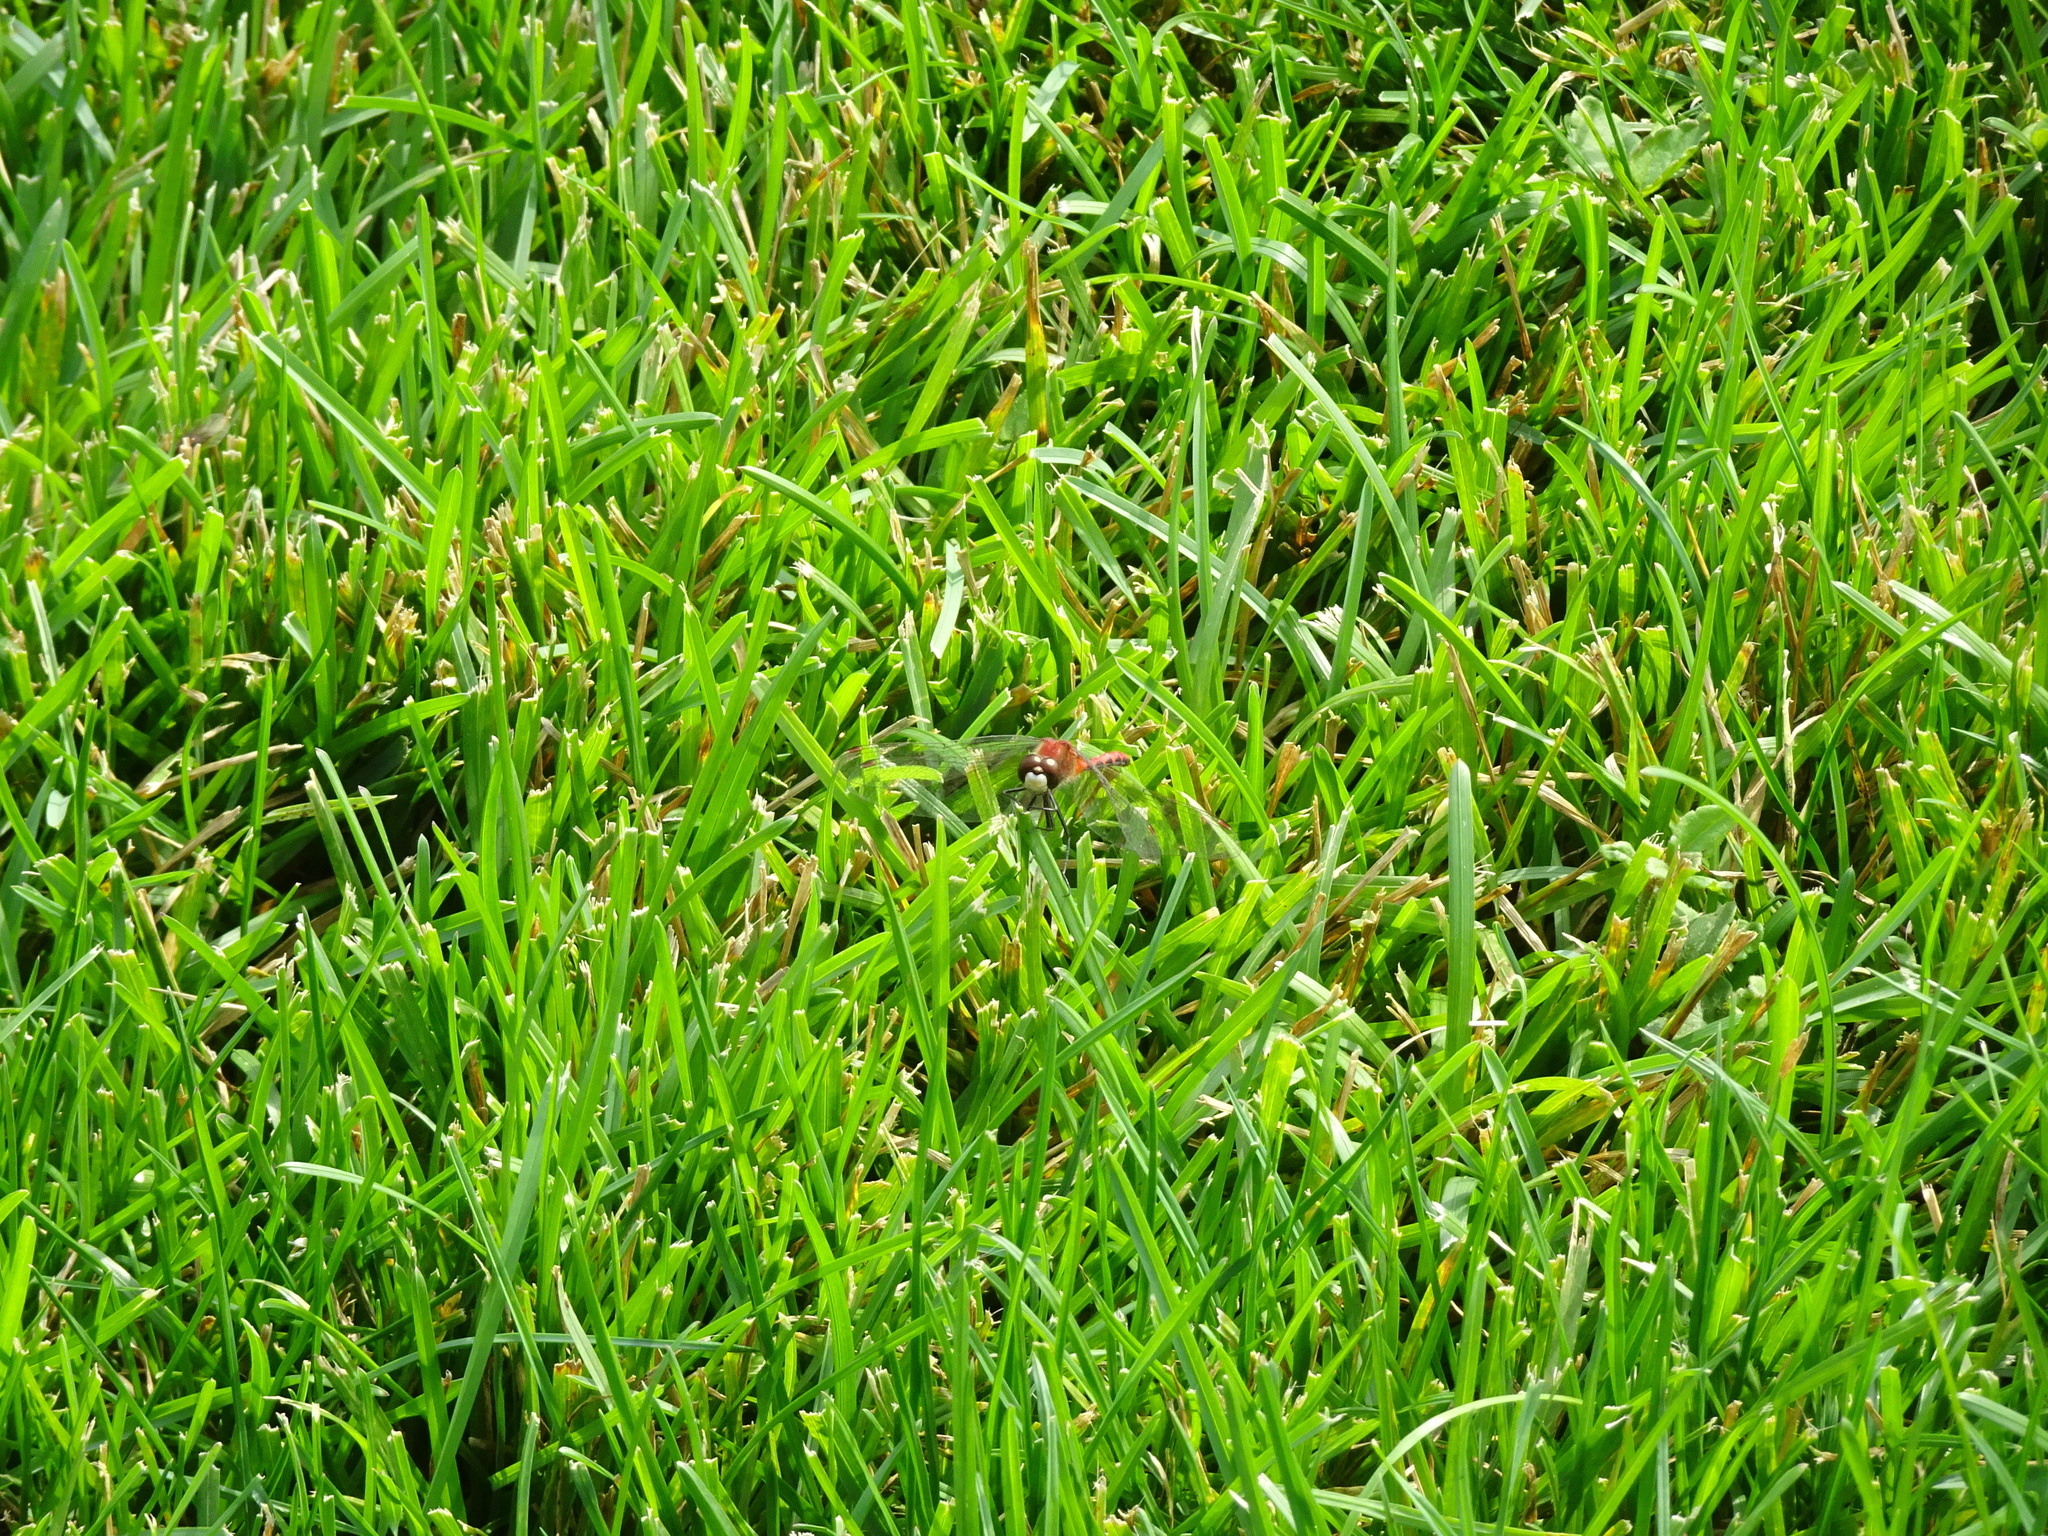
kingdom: Animalia
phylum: Arthropoda
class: Insecta
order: Odonata
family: Libellulidae
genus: Sympetrum
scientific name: Sympetrum obtrusum
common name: White-faced meadowhawk
